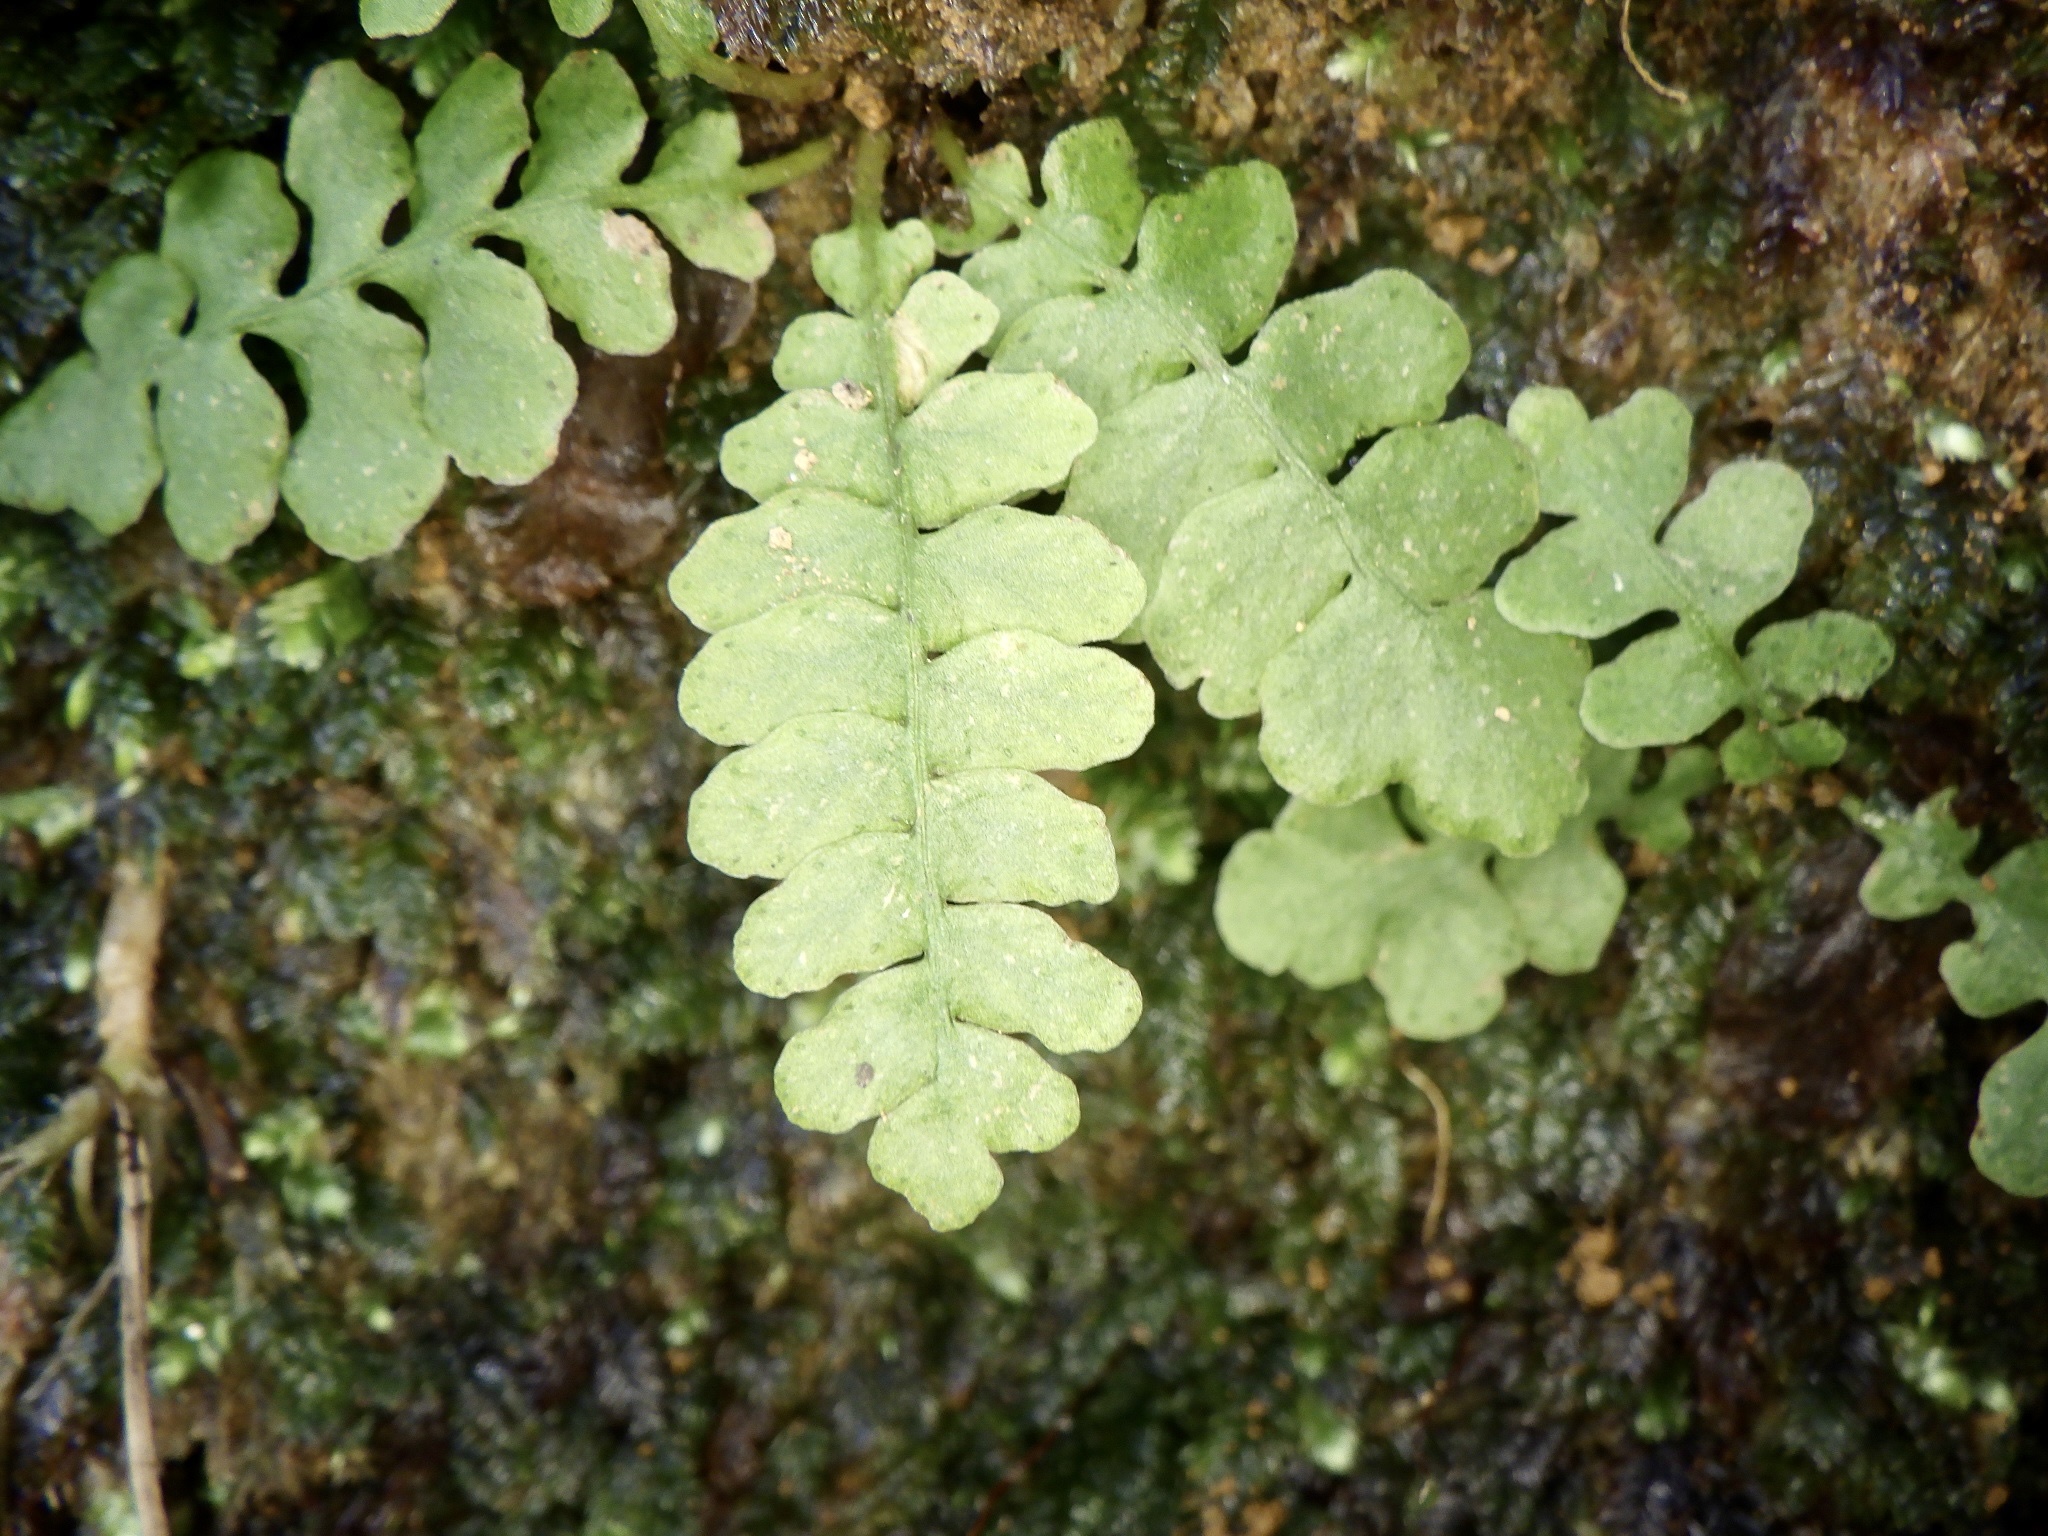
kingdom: Plantae
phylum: Tracheophyta
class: Polypodiopsida
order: Polypodiales
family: Blechnaceae
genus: Spicantopsis
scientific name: Spicantopsis niponica
